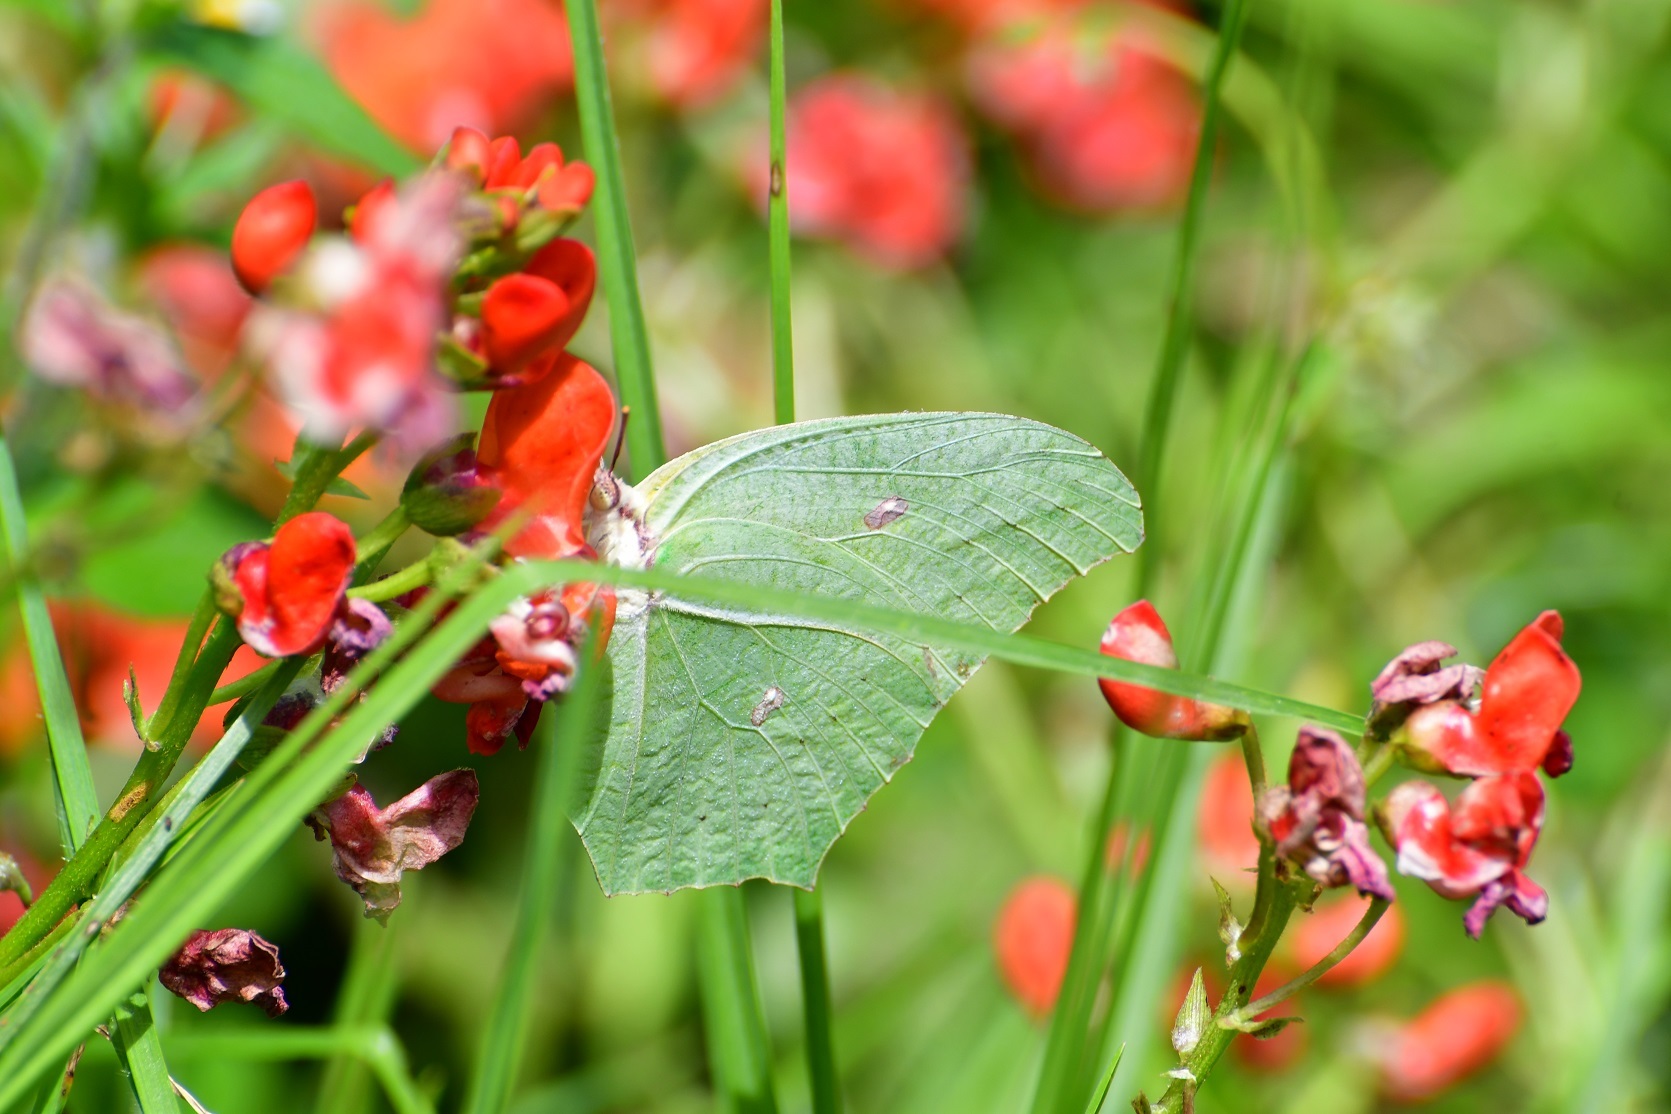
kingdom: Animalia
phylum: Arthropoda
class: Insecta
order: Lepidoptera
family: Pieridae
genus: Anteos
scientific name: Anteos maerula
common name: Angled sulphur
